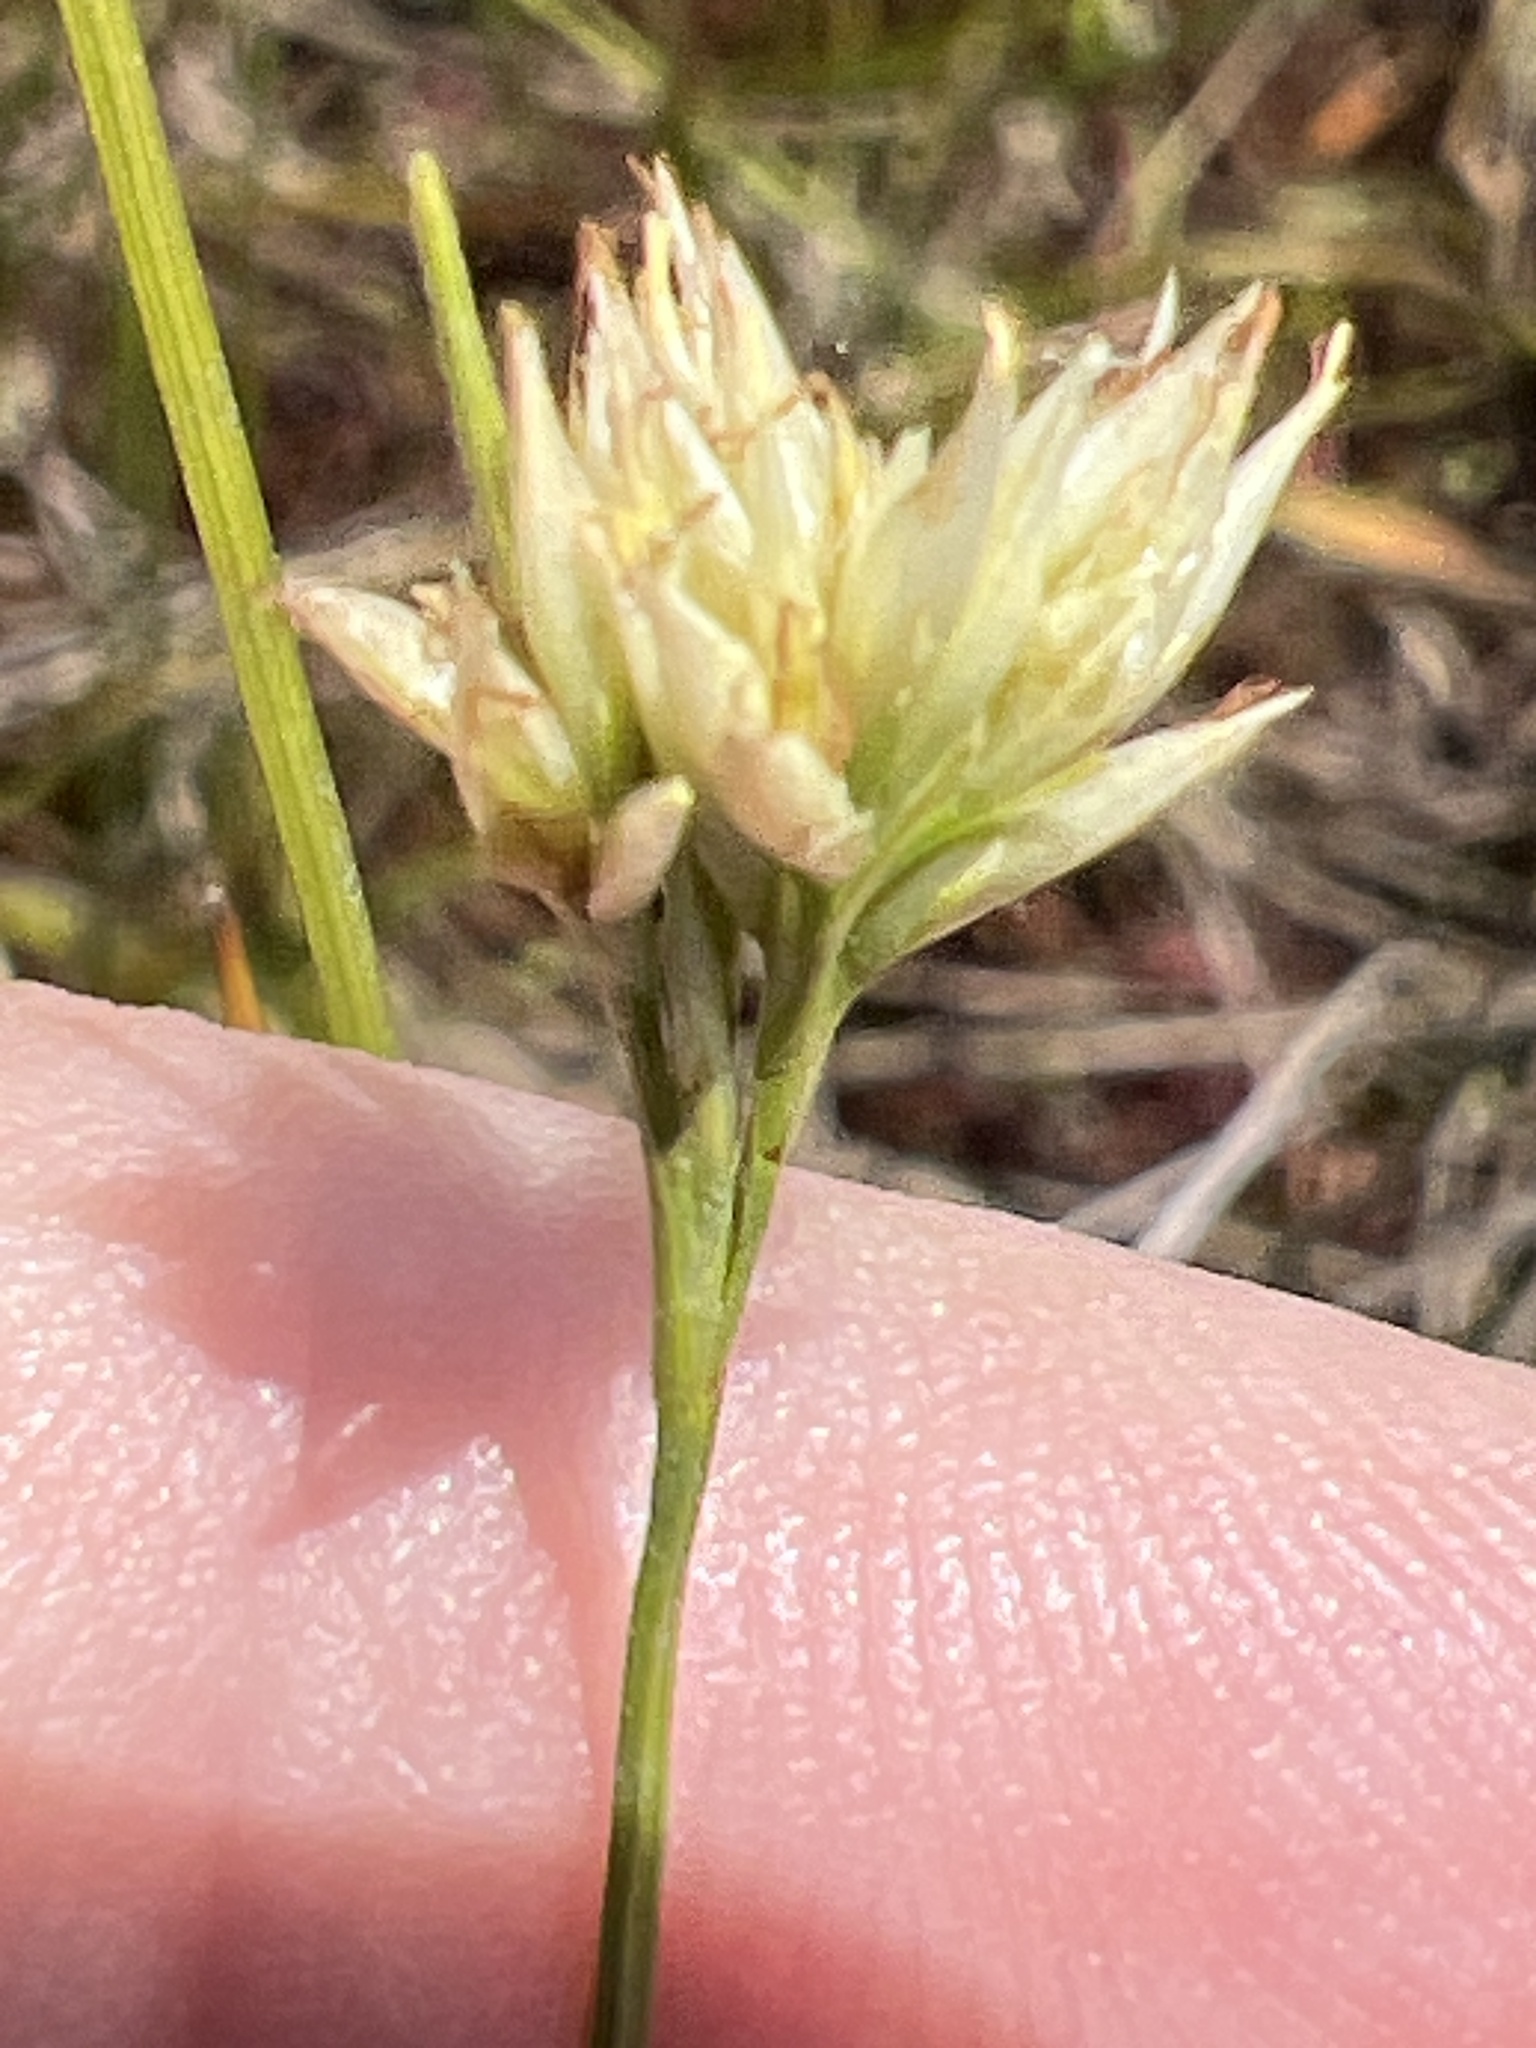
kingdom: Plantae
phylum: Tracheophyta
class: Liliopsida
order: Poales
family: Cyperaceae
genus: Rhynchospora
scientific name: Rhynchospora alba
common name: White beak-sedge
